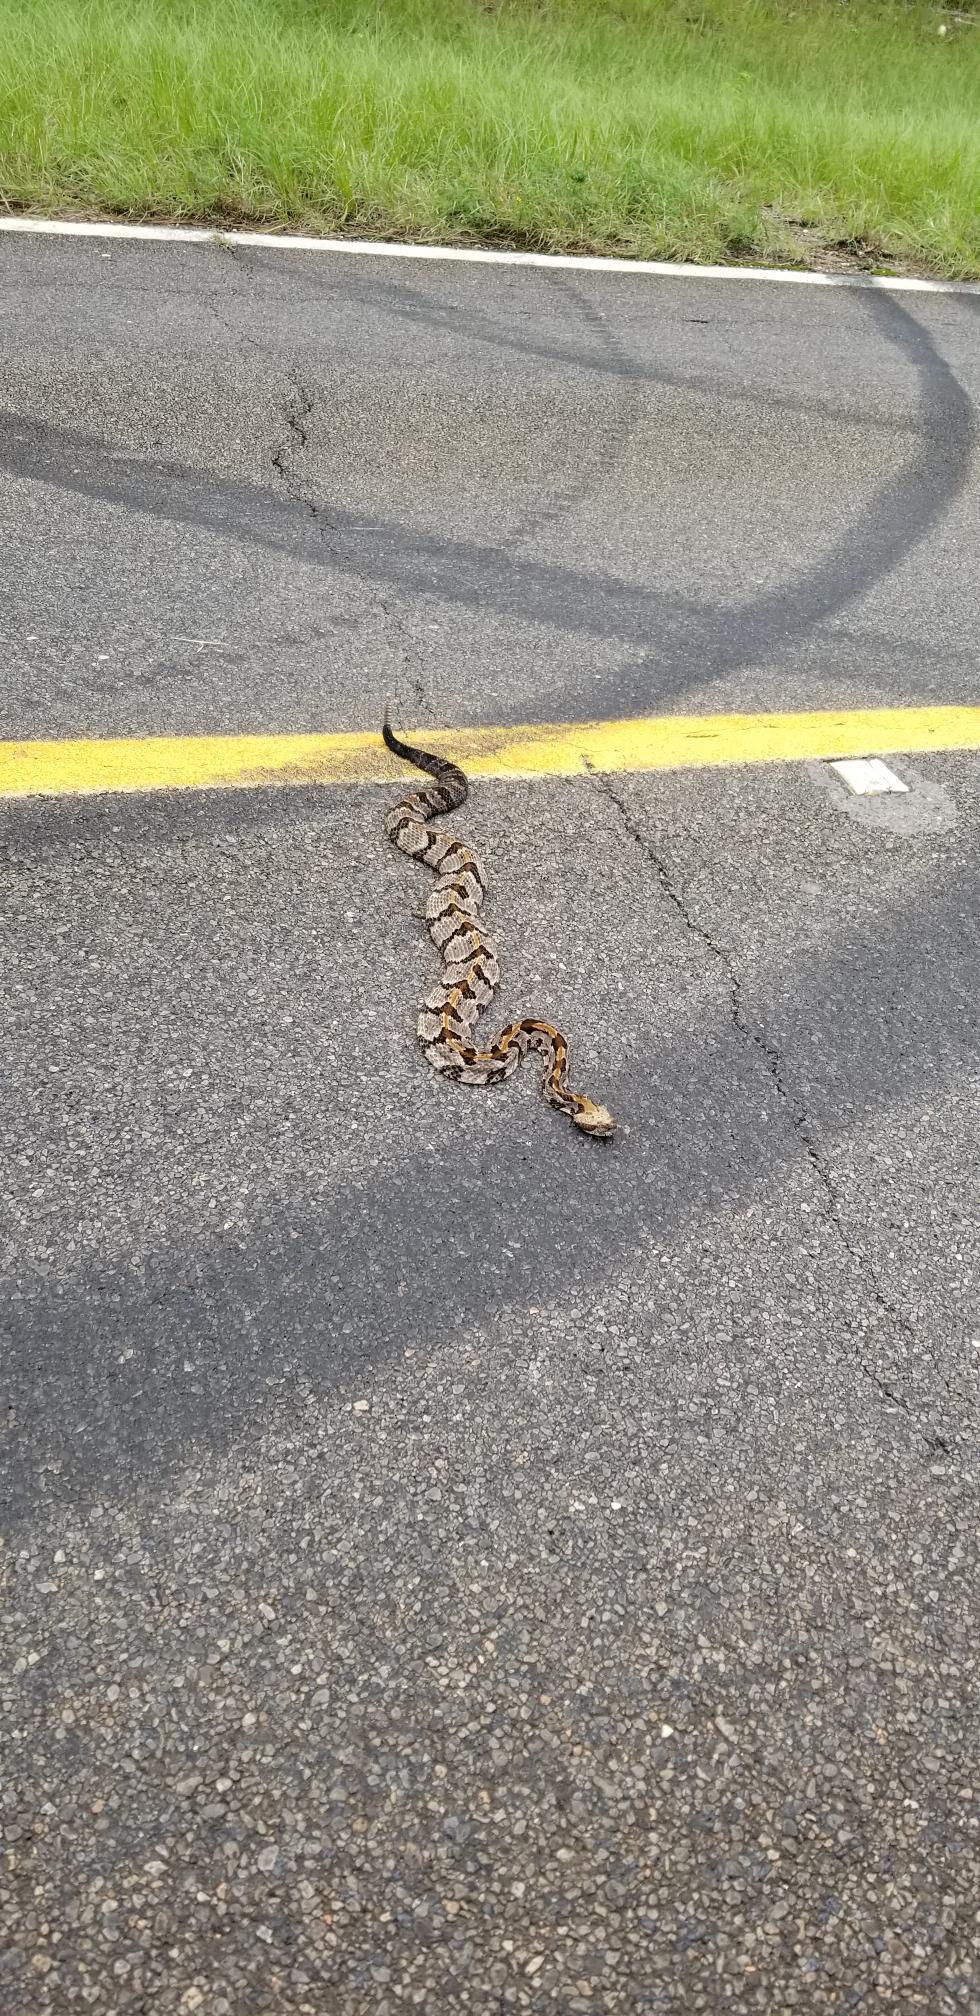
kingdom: Animalia
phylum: Chordata
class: Squamata
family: Viperidae
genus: Crotalus
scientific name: Crotalus horridus
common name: Timber rattlesnake
